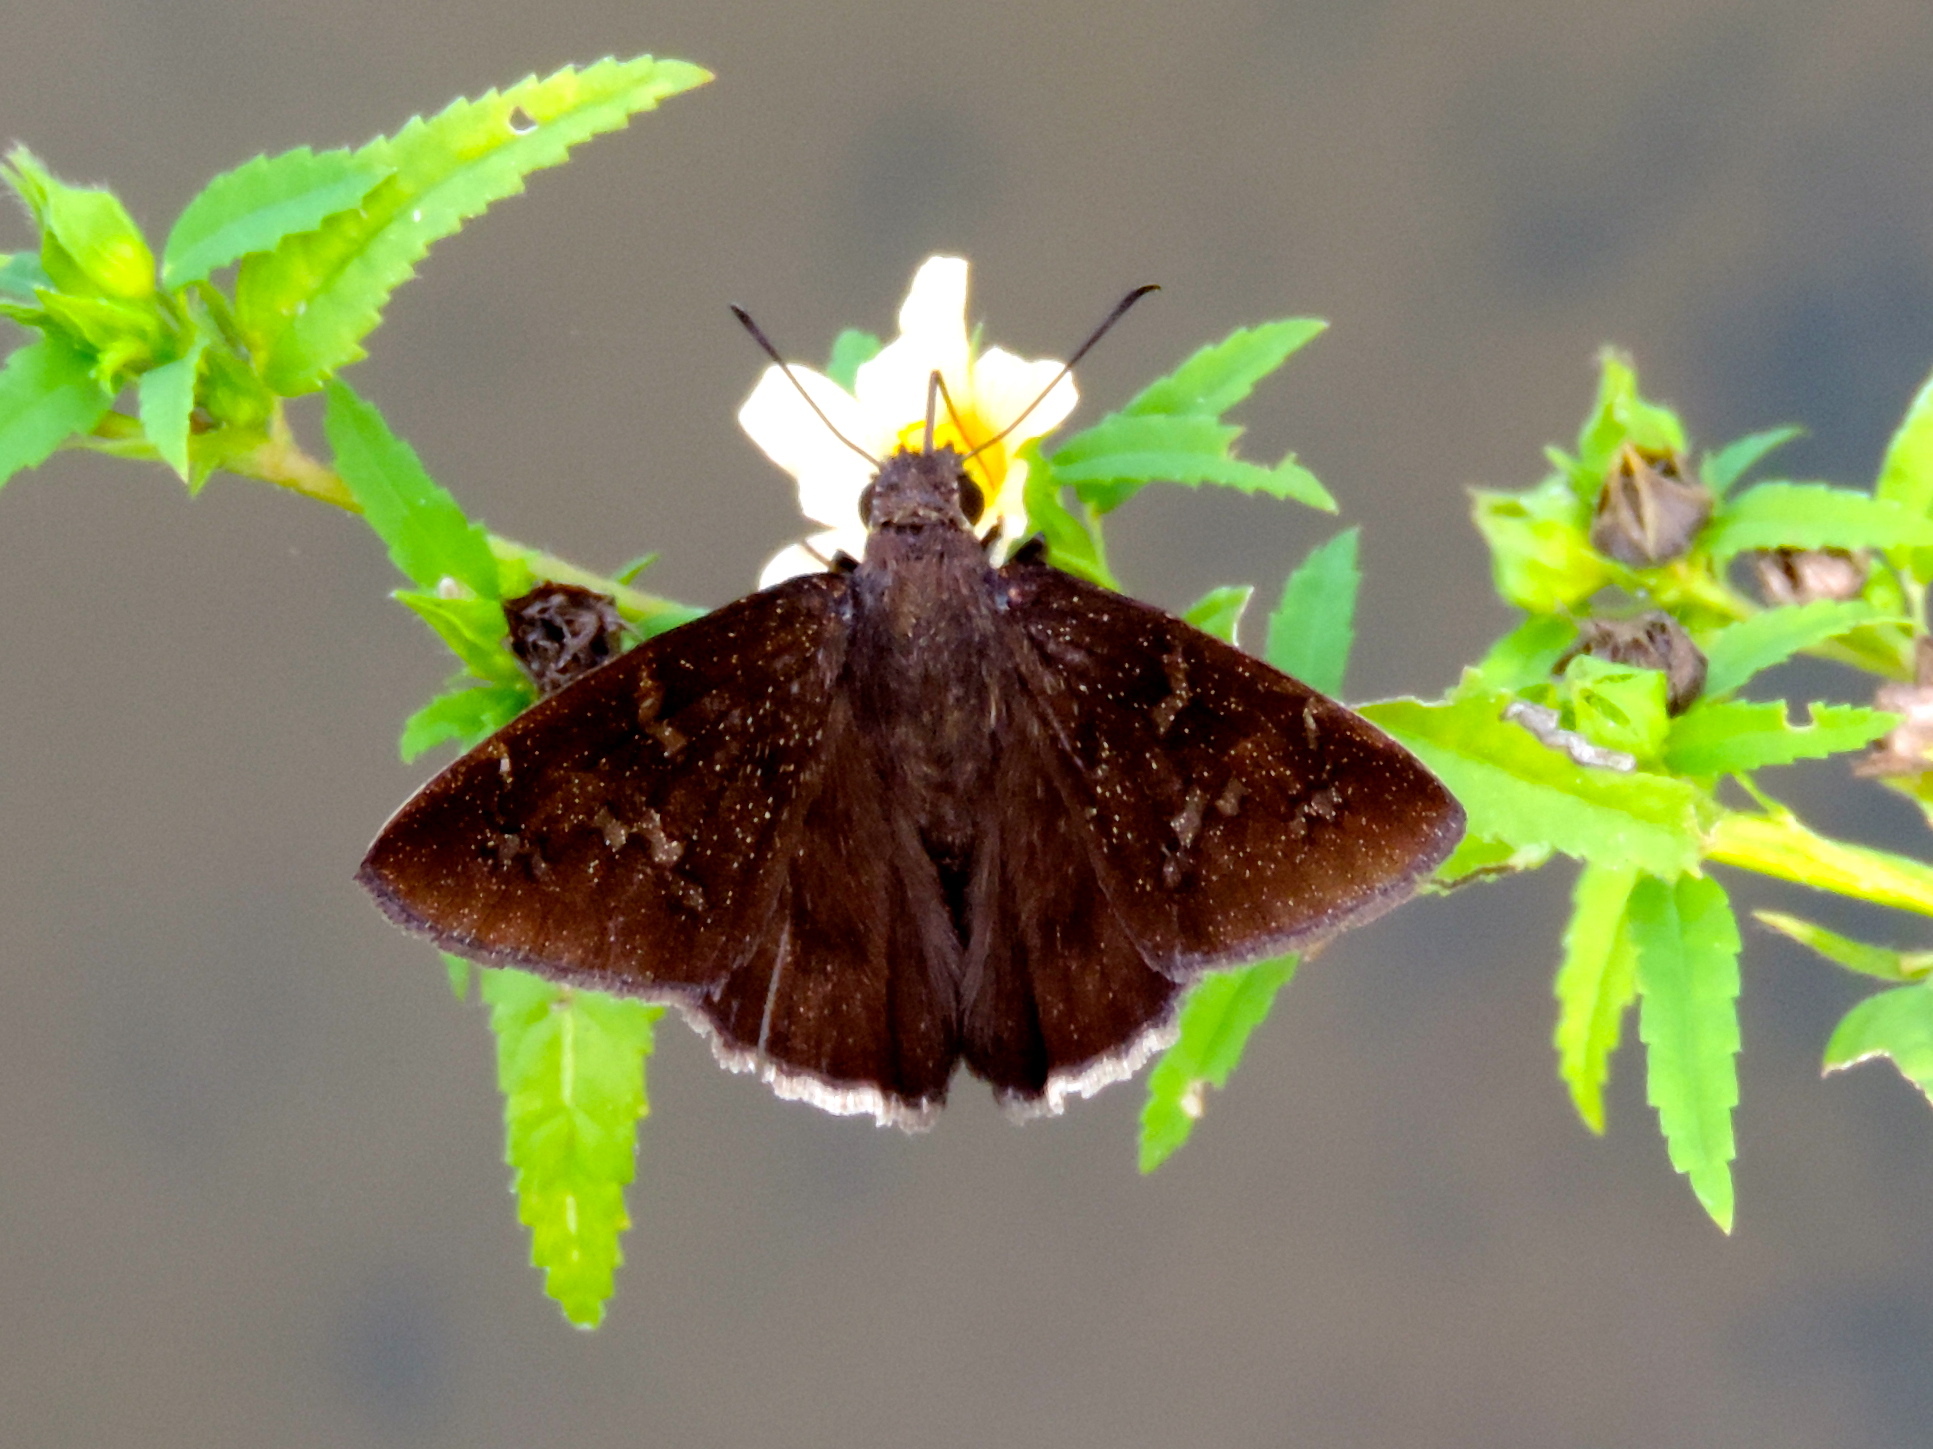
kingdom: Animalia
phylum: Arthropoda
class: Insecta
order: Lepidoptera
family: Hesperiidae
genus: Achalarus
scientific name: Achalarus Murgaria jalapus
